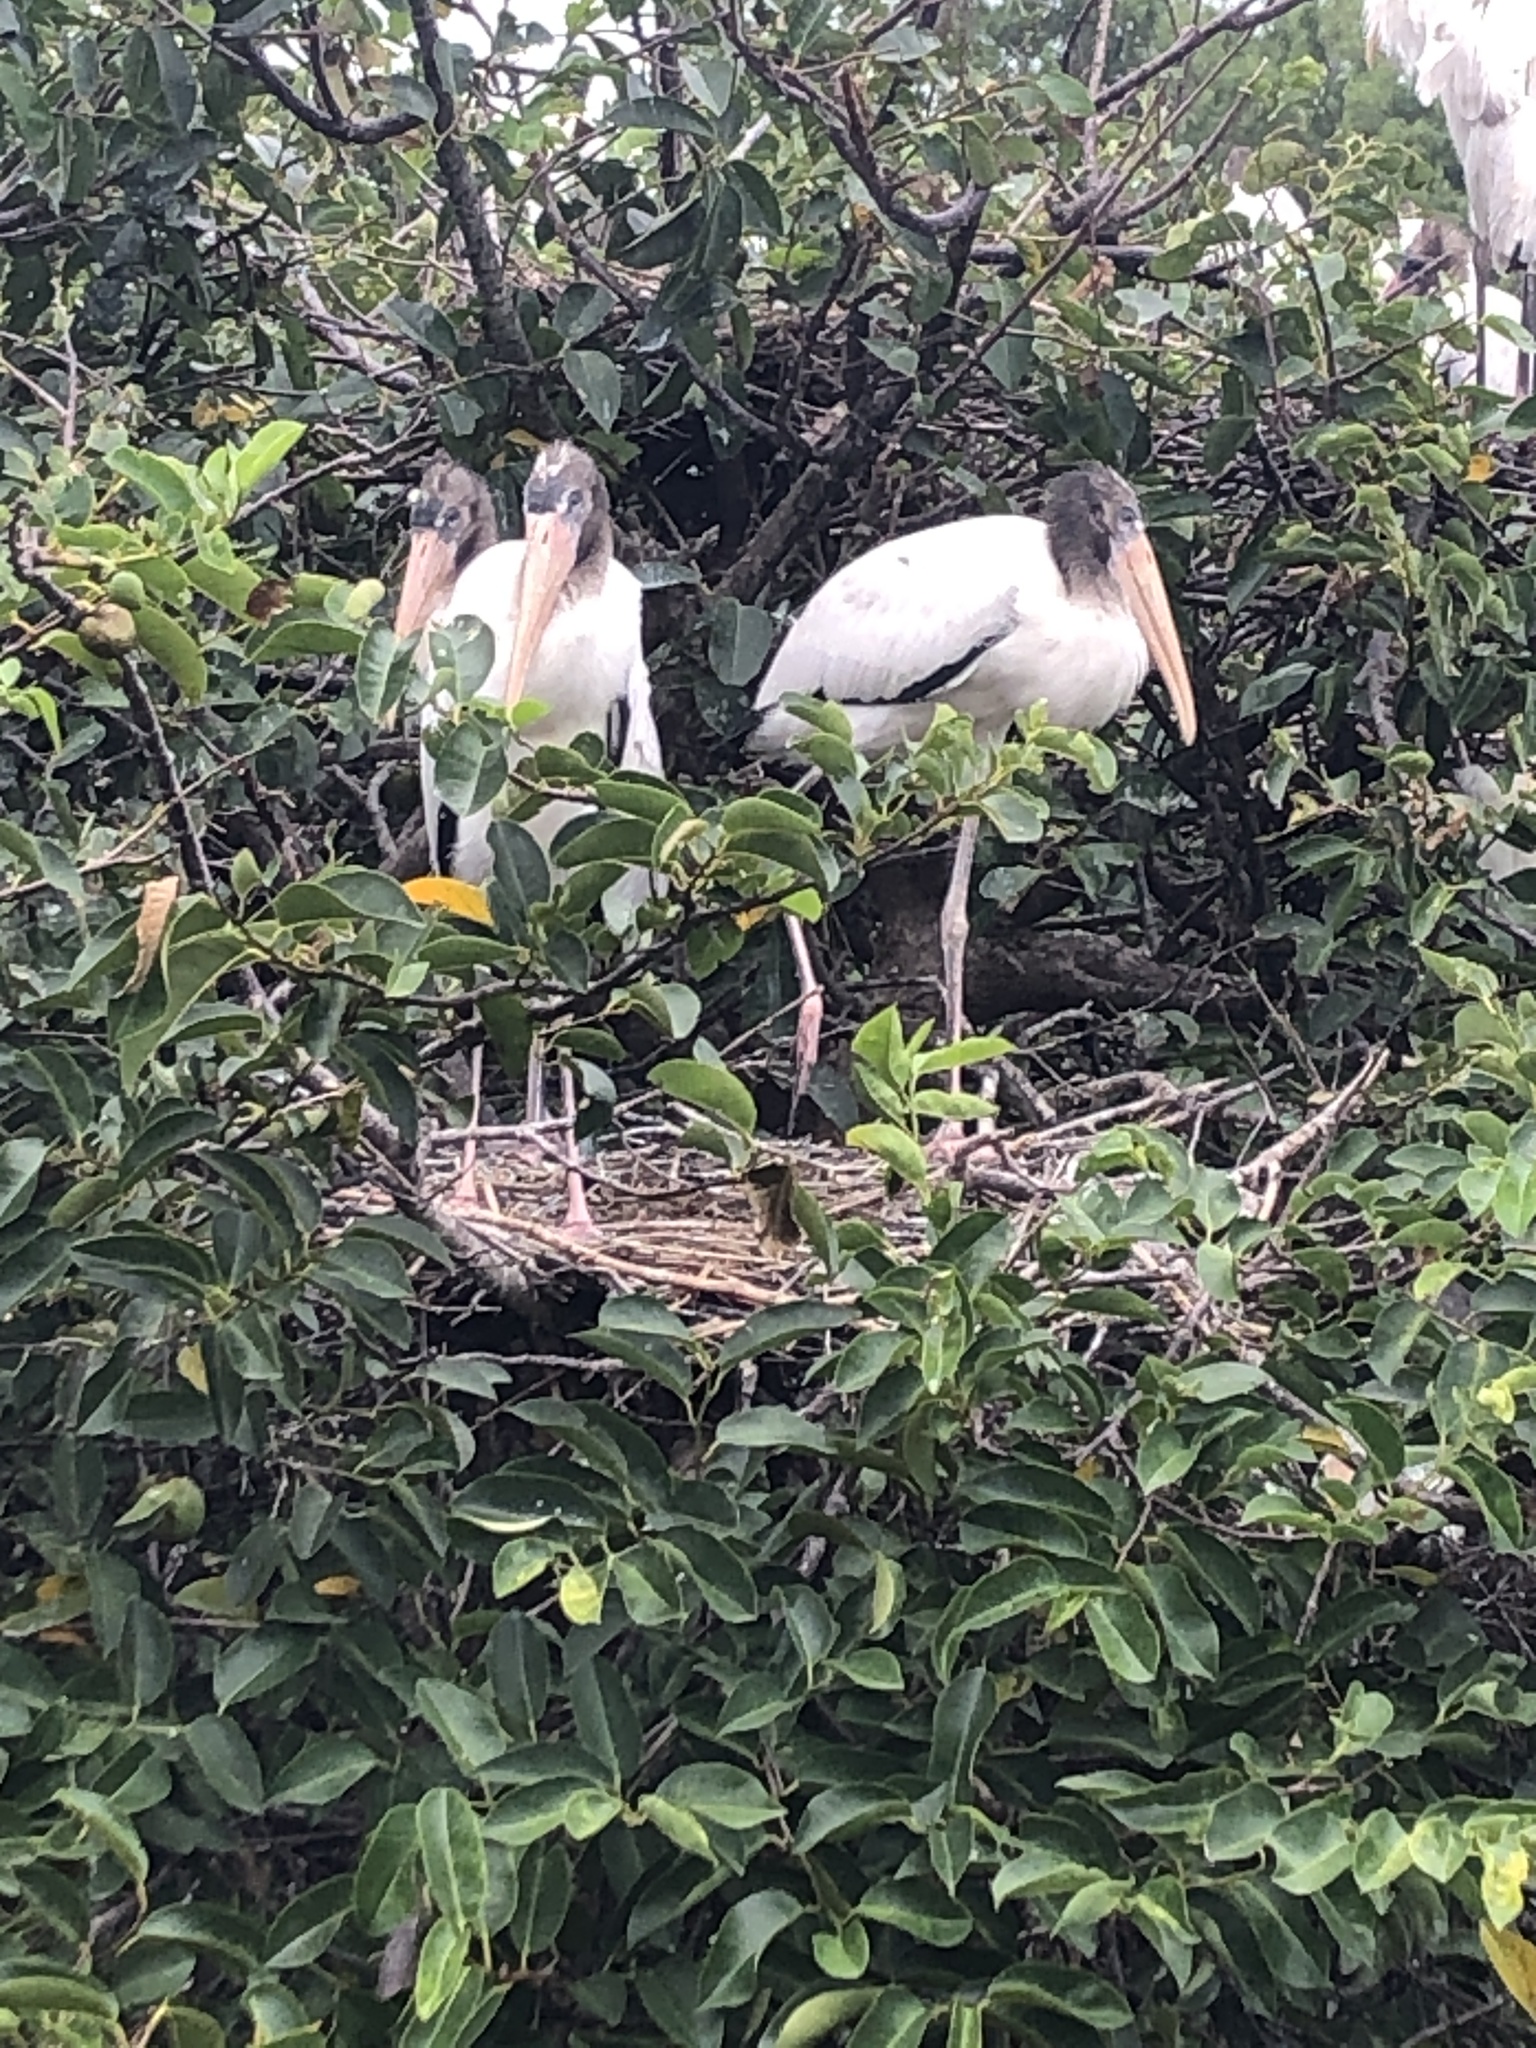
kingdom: Animalia
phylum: Chordata
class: Aves
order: Ciconiiformes
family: Ciconiidae
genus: Mycteria
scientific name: Mycteria americana
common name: Wood stork
